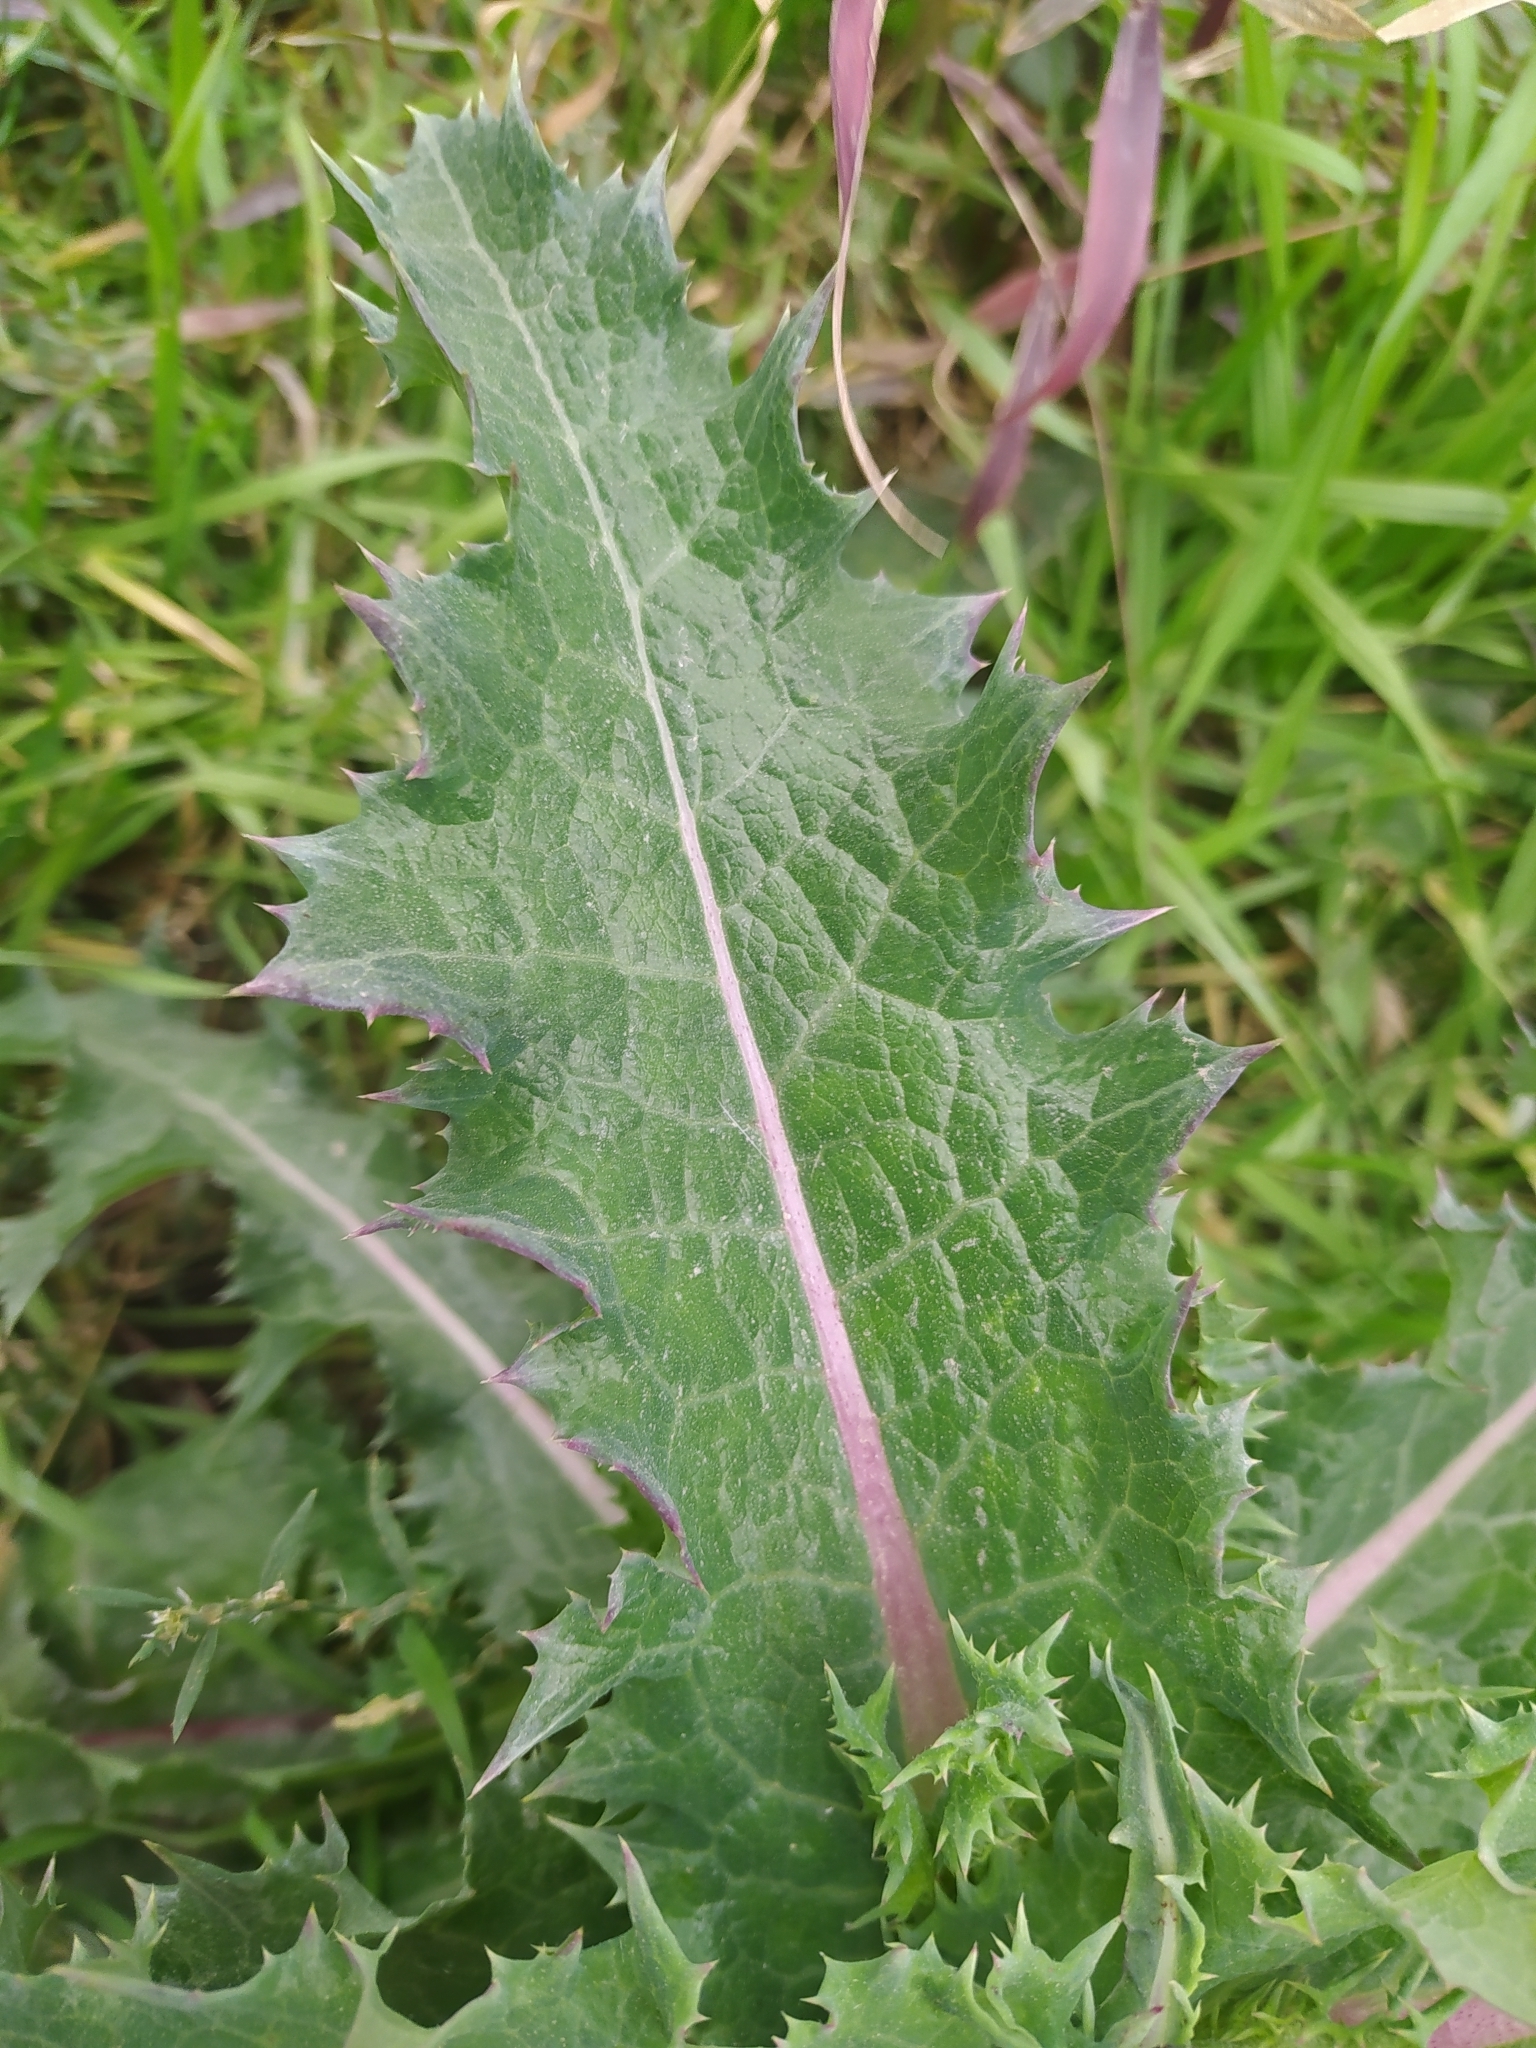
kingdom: Plantae
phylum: Tracheophyta
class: Magnoliopsida
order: Asterales
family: Asteraceae
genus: Sonchus
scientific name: Sonchus asper
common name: Prickly sow-thistle
